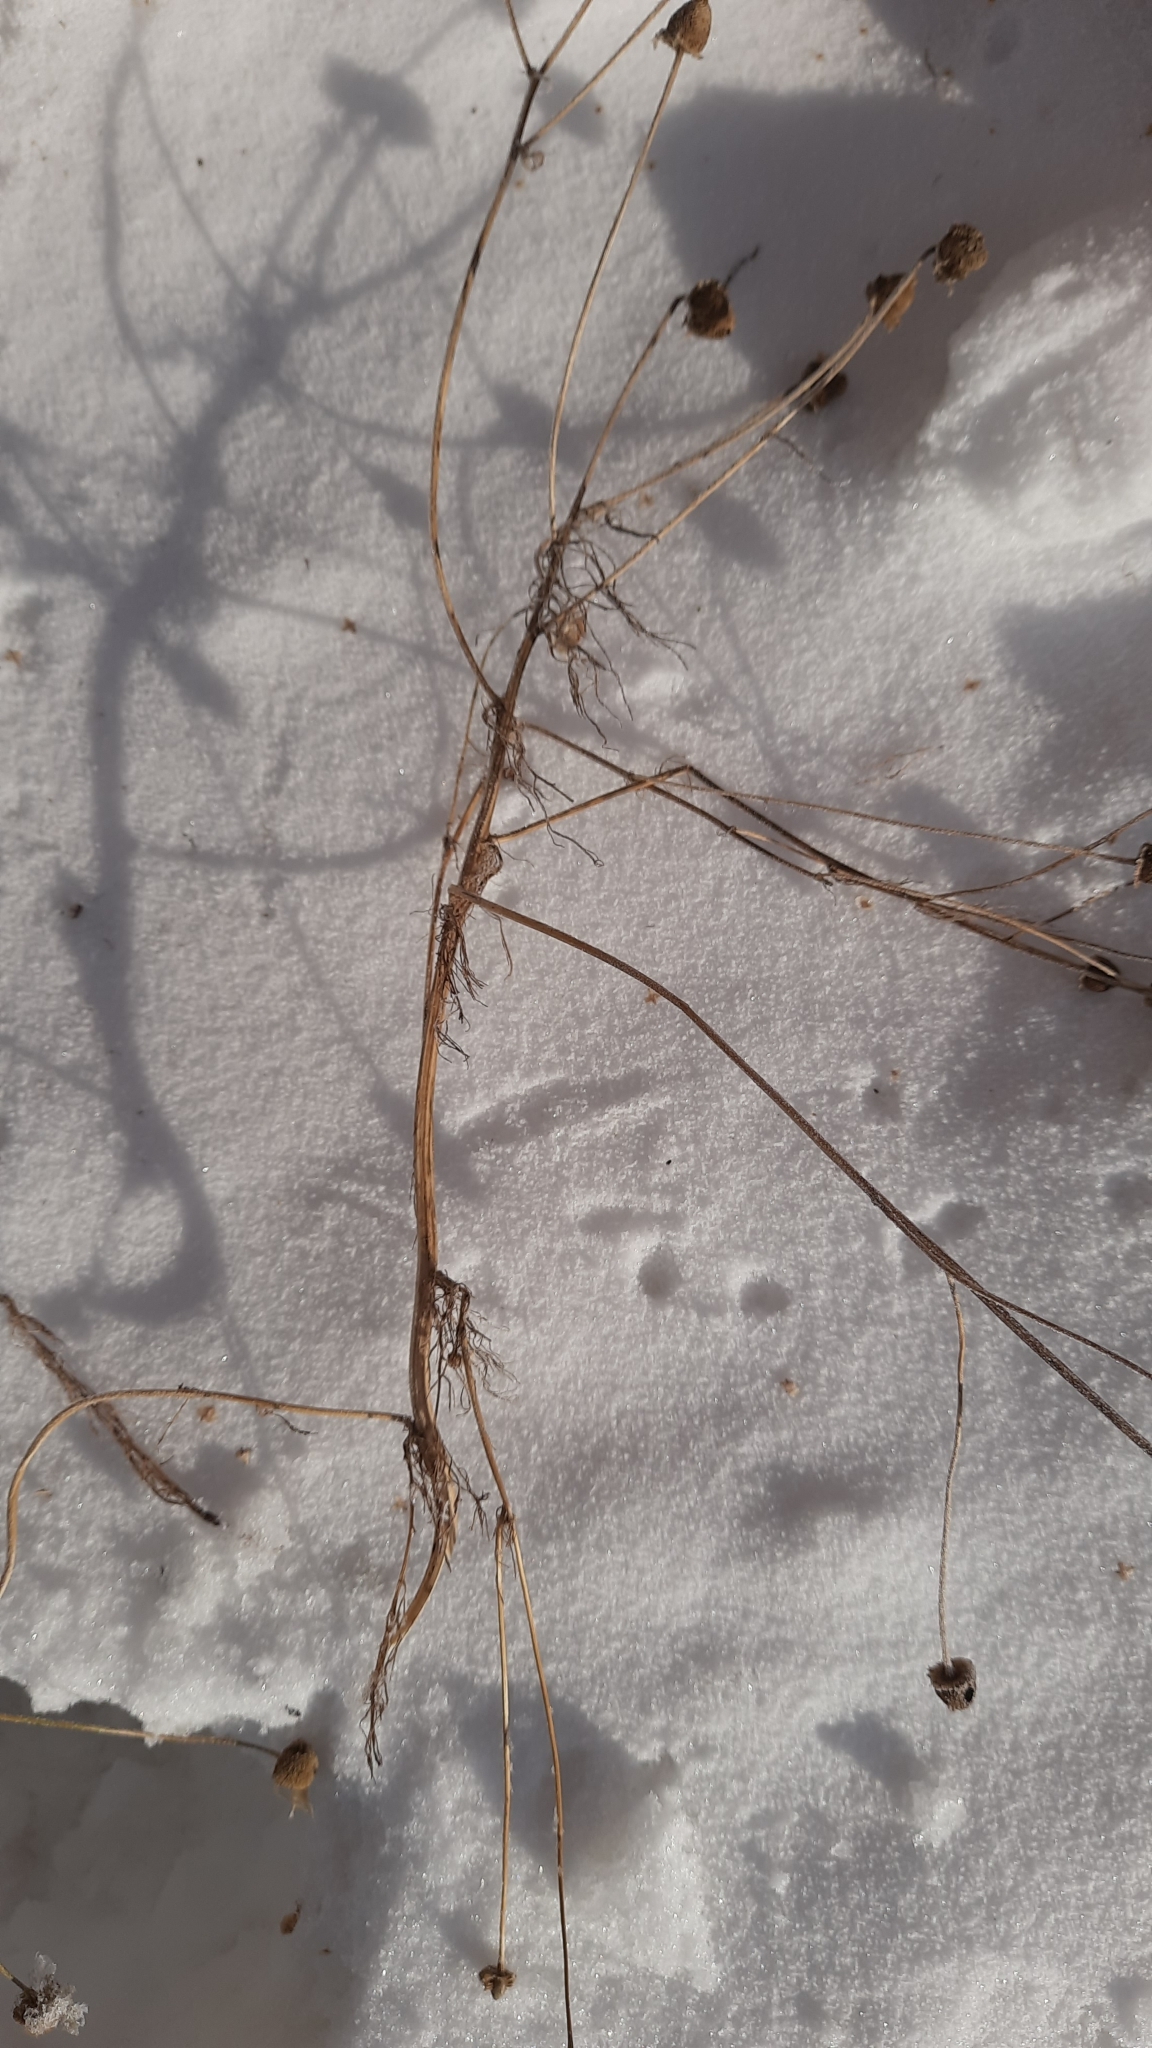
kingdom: Plantae
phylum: Tracheophyta
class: Magnoliopsida
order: Asterales
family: Asteraceae
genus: Tripleurospermum
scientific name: Tripleurospermum inodorum
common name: Scentless mayweed
